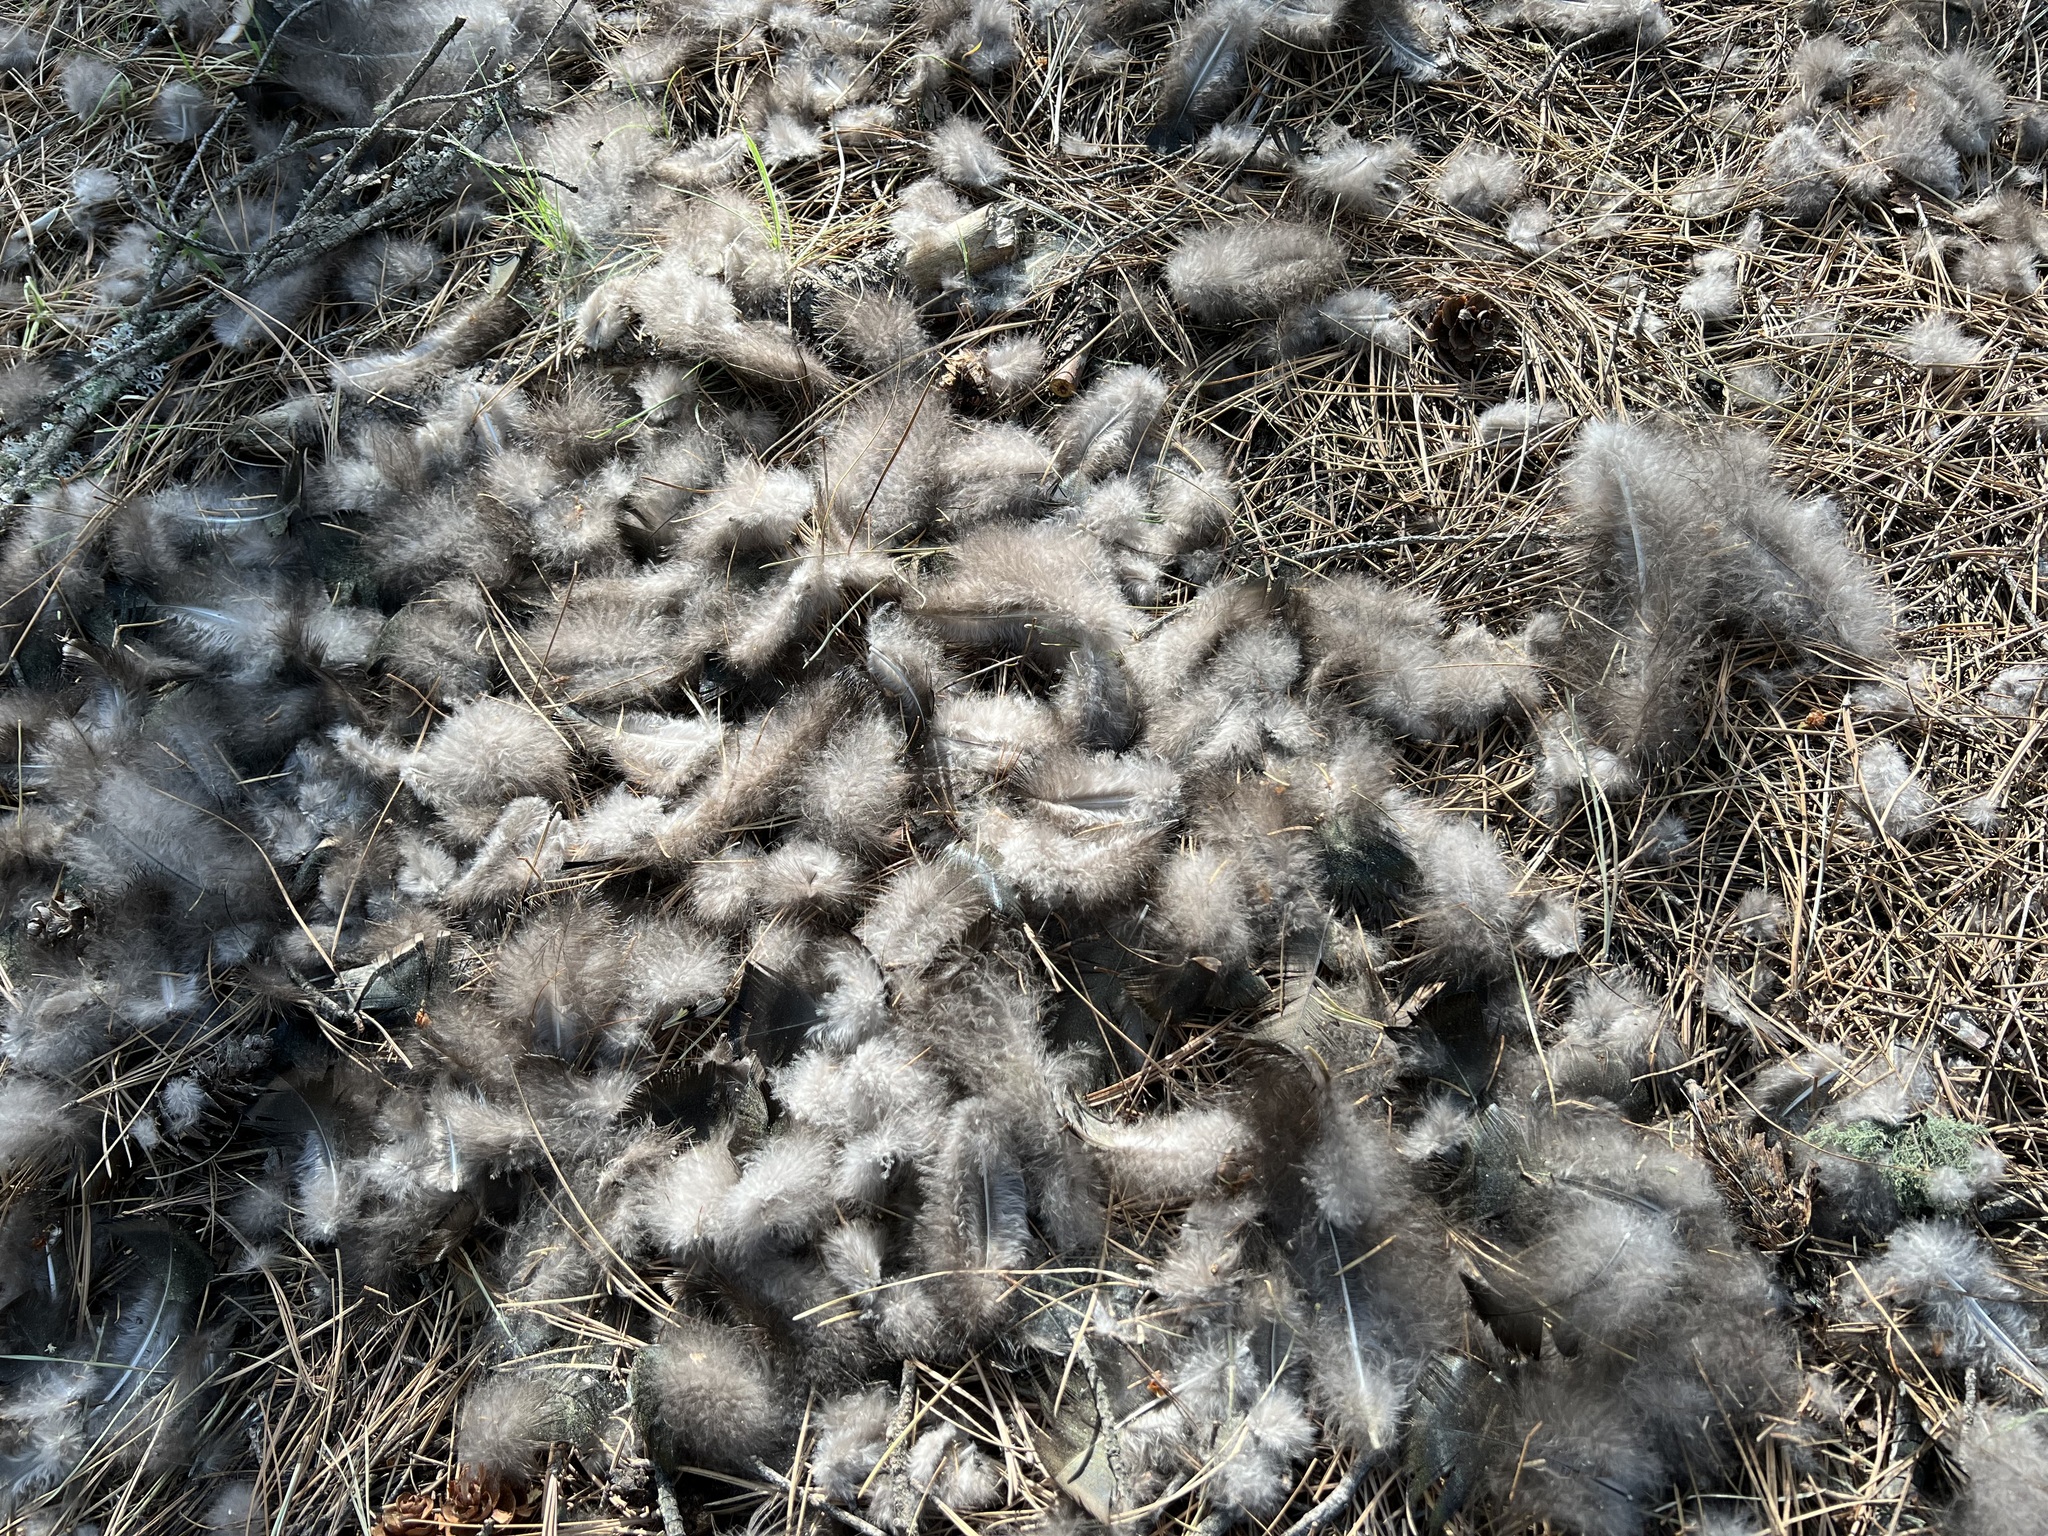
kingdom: Animalia
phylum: Chordata
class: Aves
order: Galliformes
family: Phasianidae
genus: Meleagris
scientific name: Meleagris gallopavo
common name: Wild turkey
